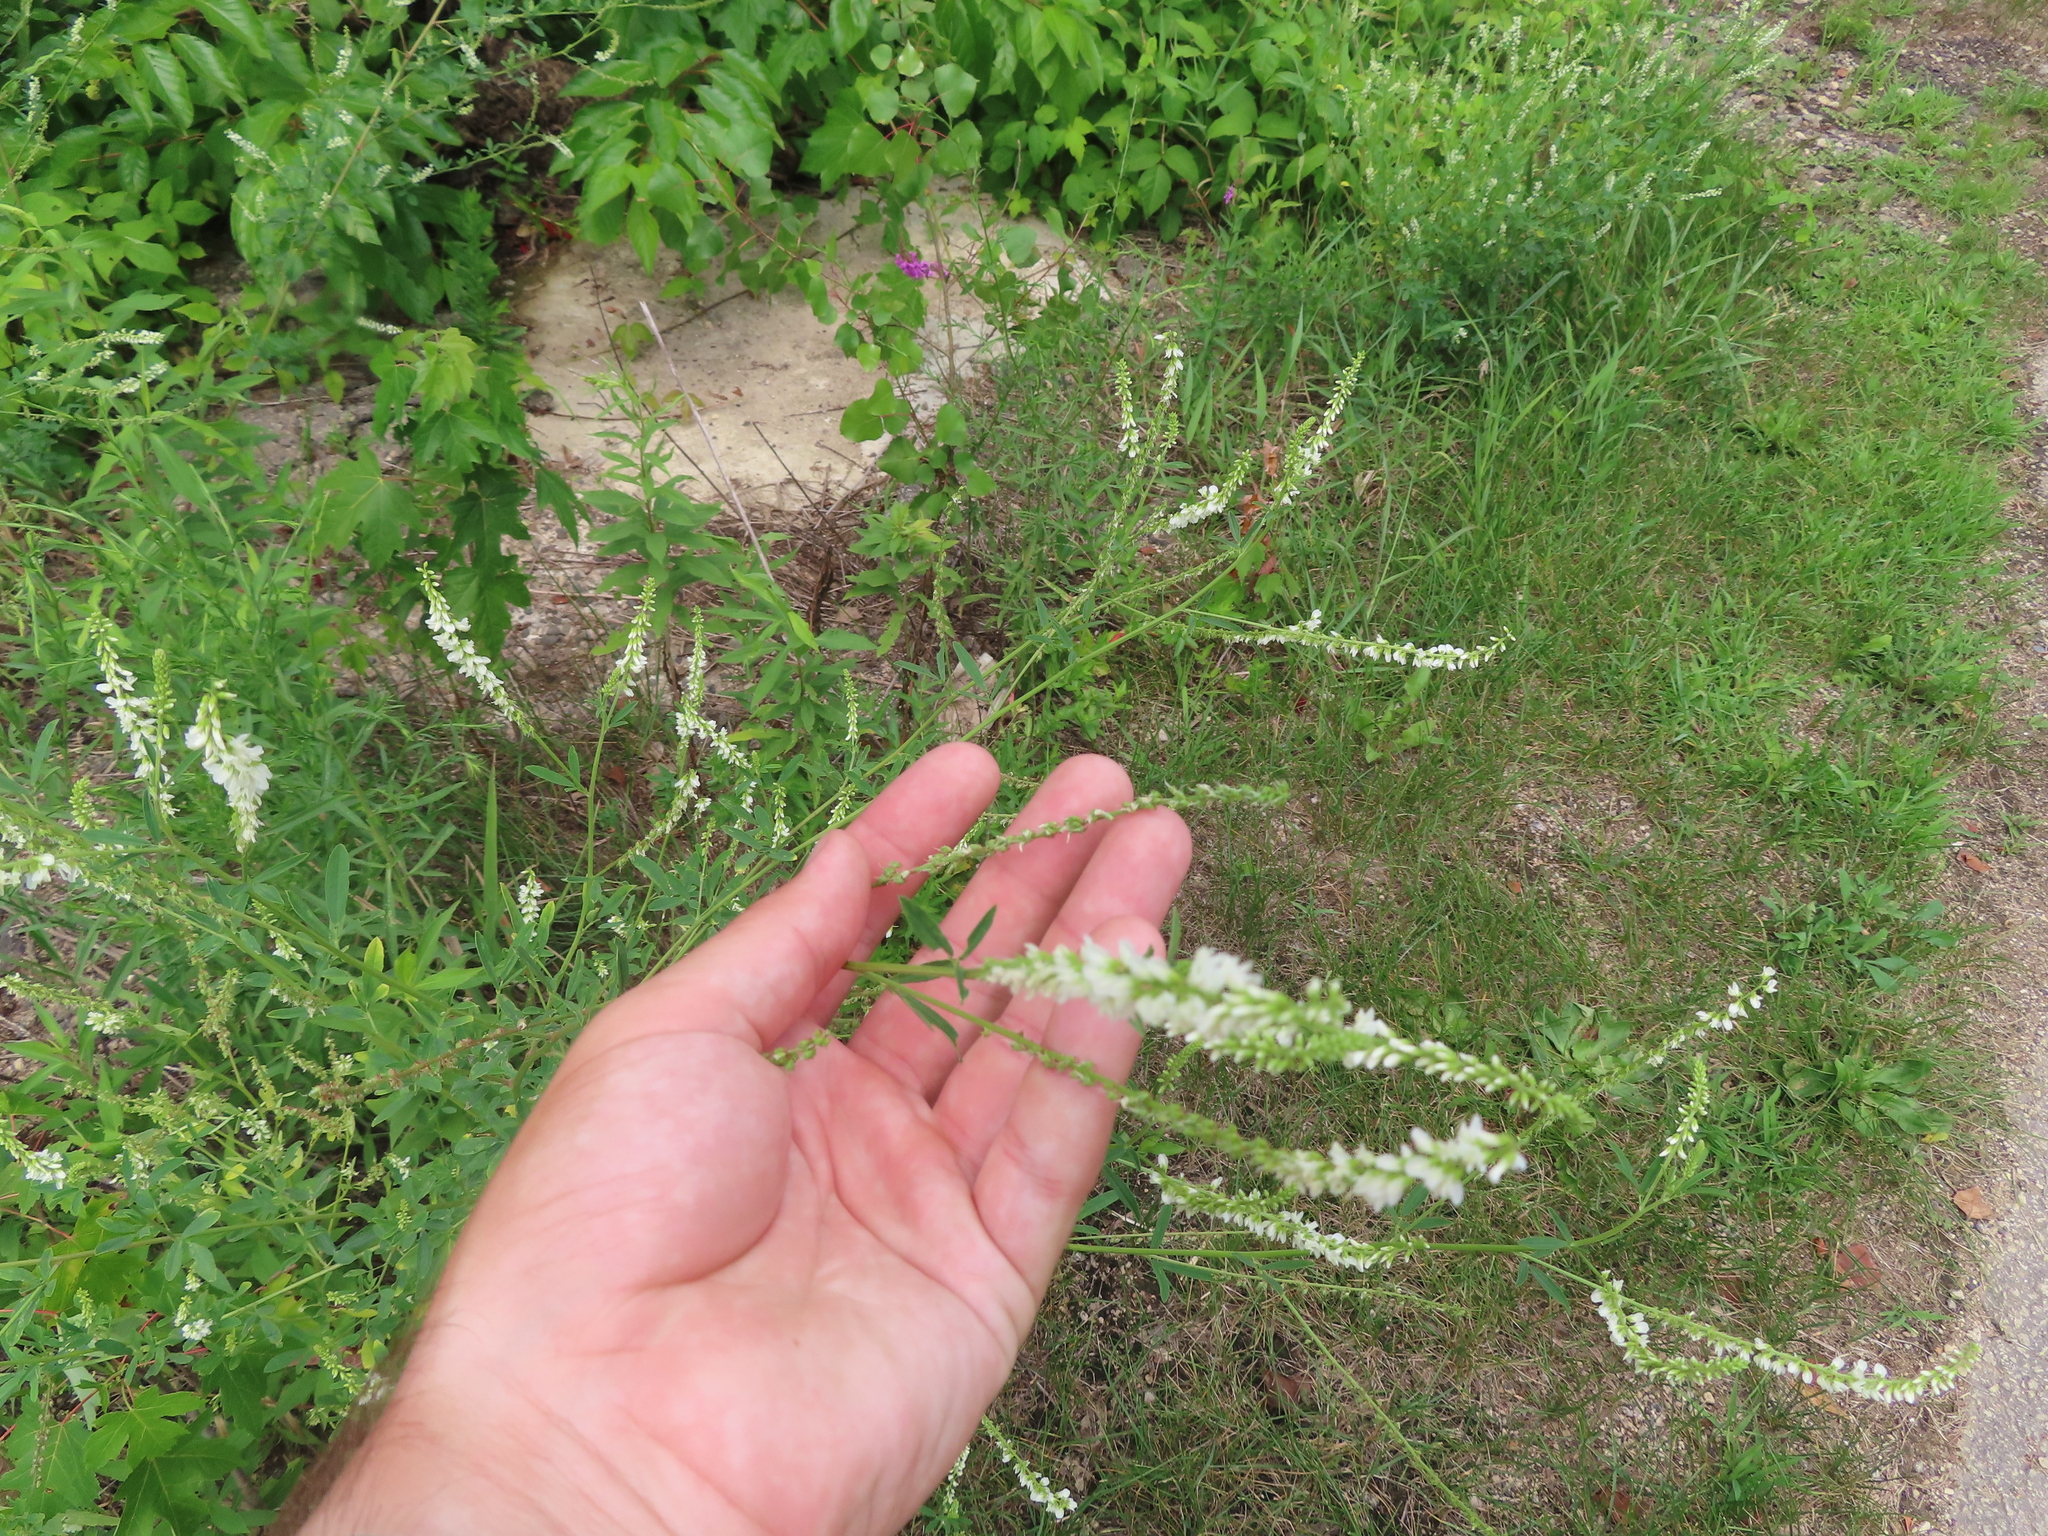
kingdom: Plantae
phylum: Tracheophyta
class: Magnoliopsida
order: Fabales
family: Fabaceae
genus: Melilotus
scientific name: Melilotus albus
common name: White melilot
